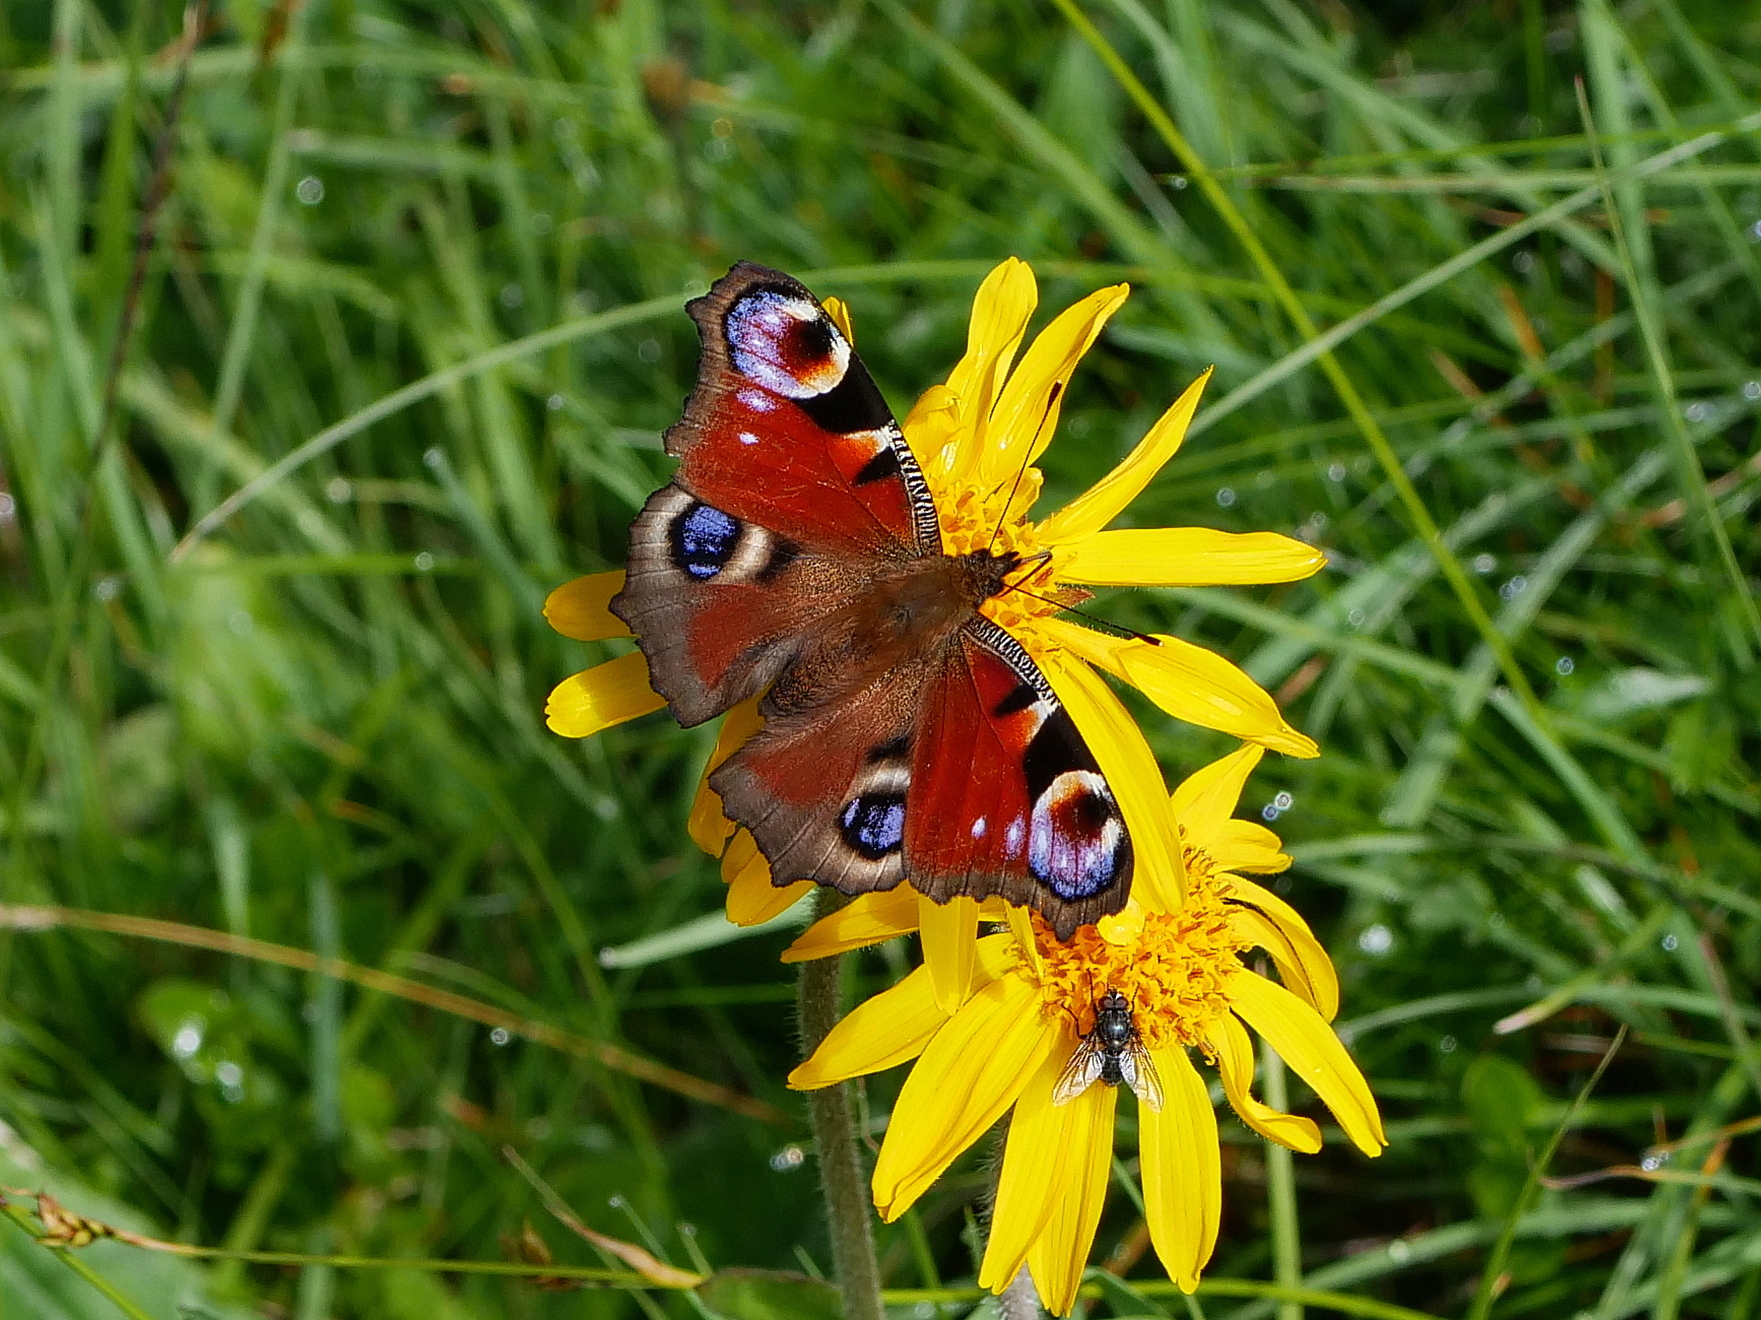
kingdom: Animalia
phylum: Arthropoda
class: Insecta
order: Lepidoptera
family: Nymphalidae
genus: Aglais
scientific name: Aglais io
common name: Peacock
